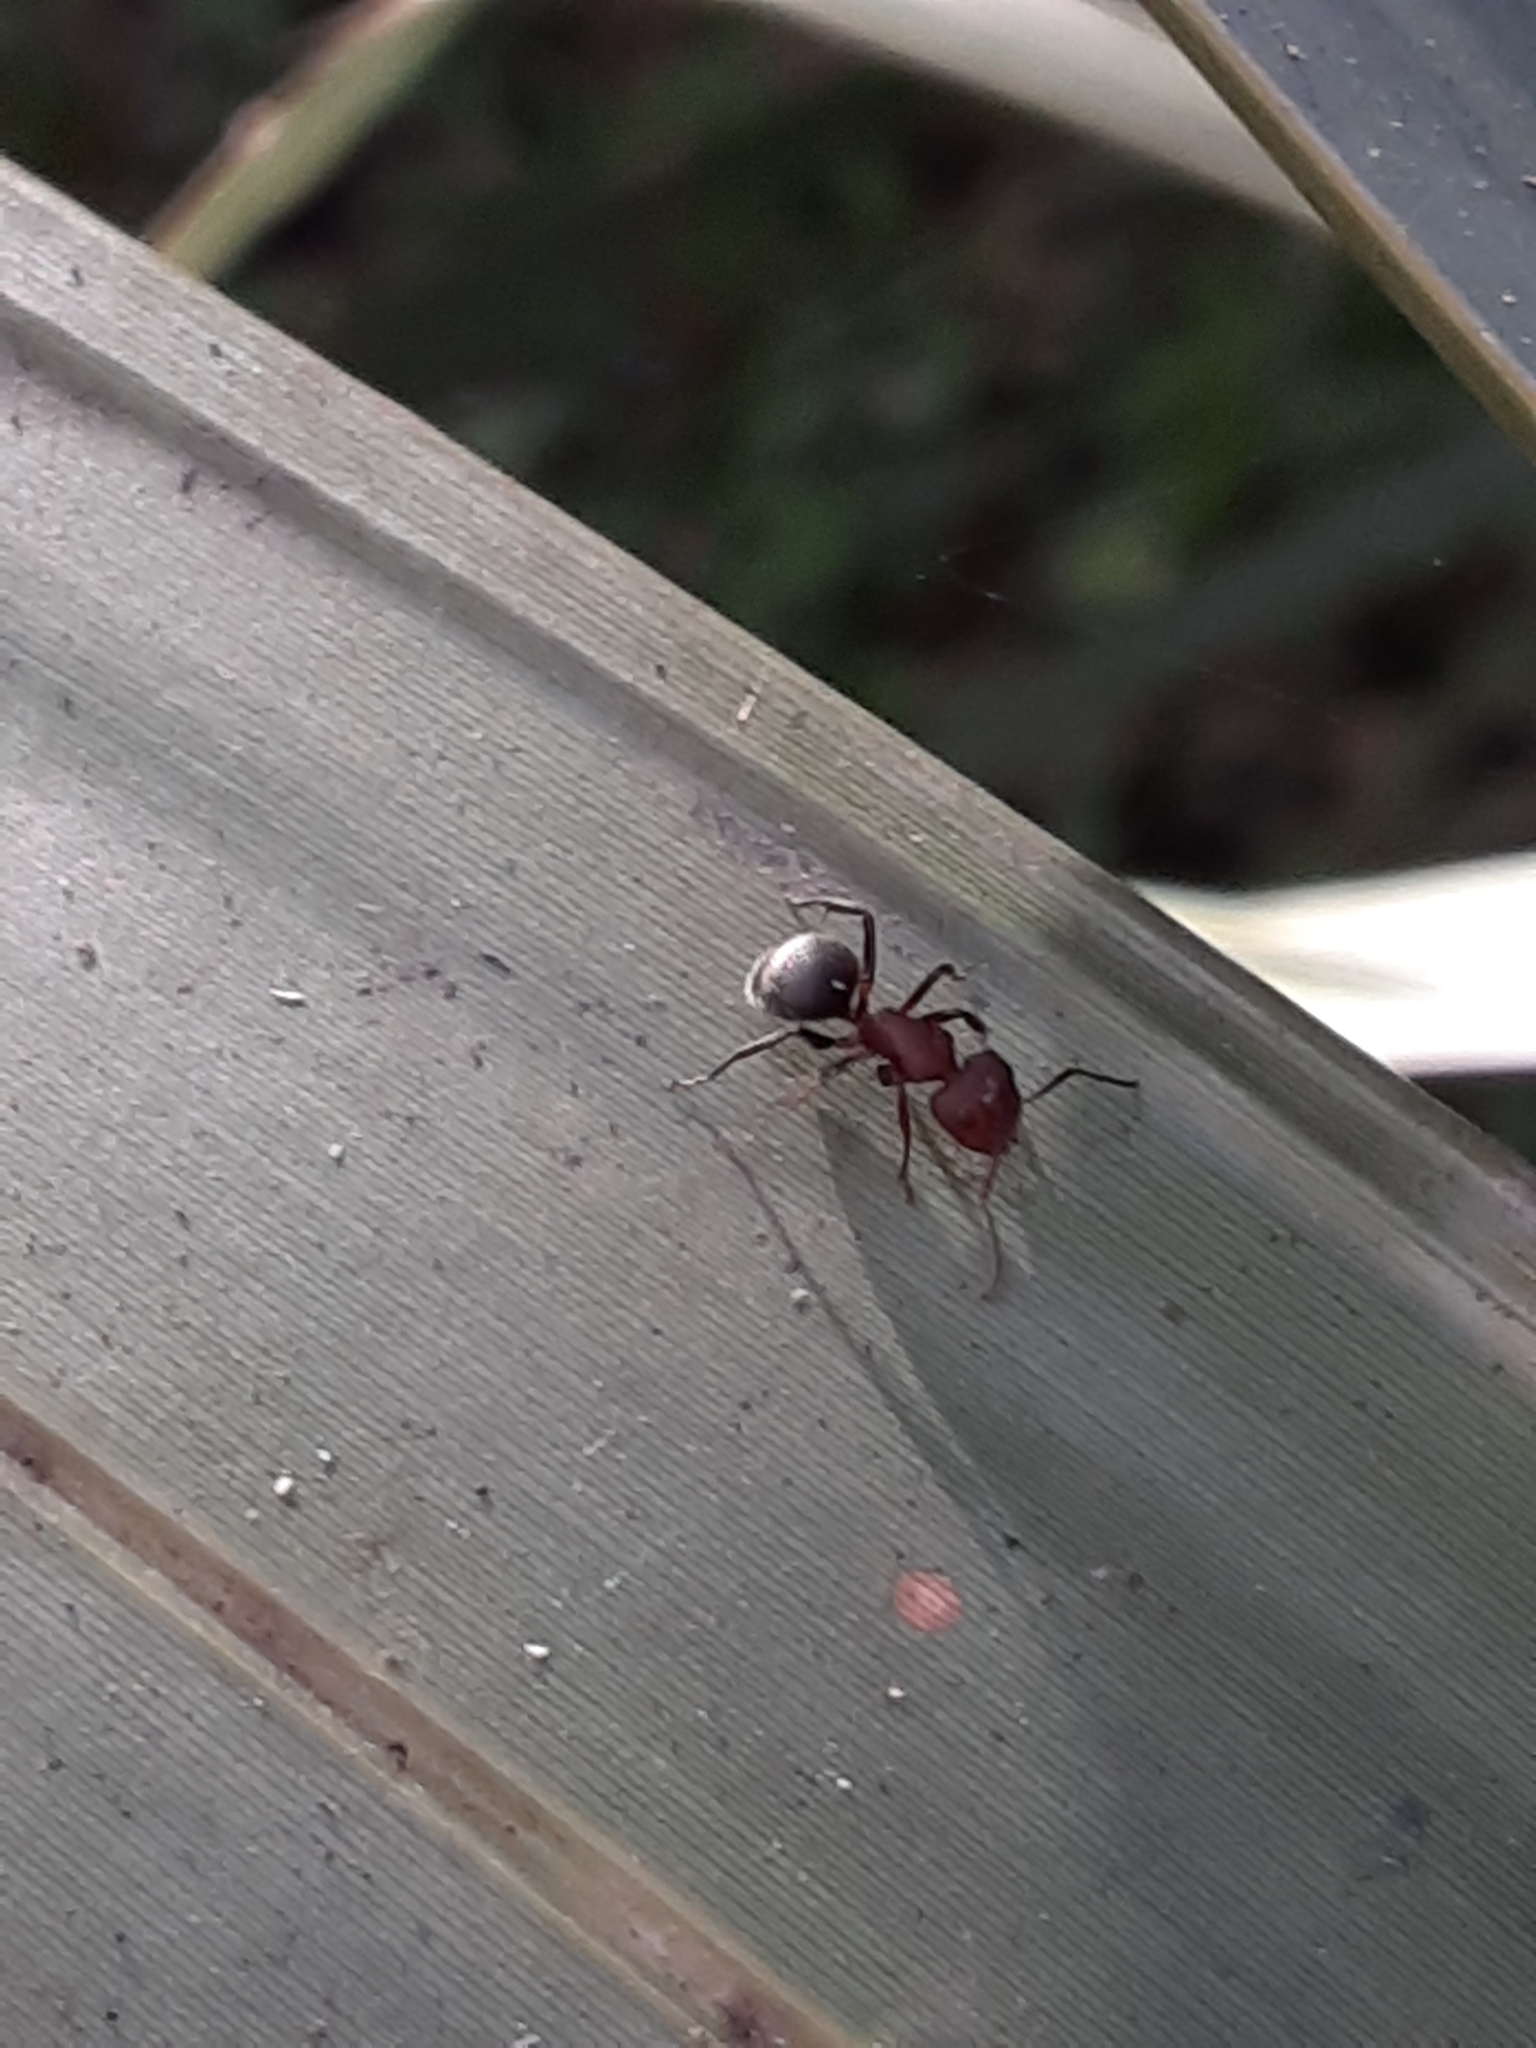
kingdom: Animalia
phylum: Arthropoda
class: Insecta
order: Hymenoptera
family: Formicidae
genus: Camponotus
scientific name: Camponotus planatus
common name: Compact carpenter ant
